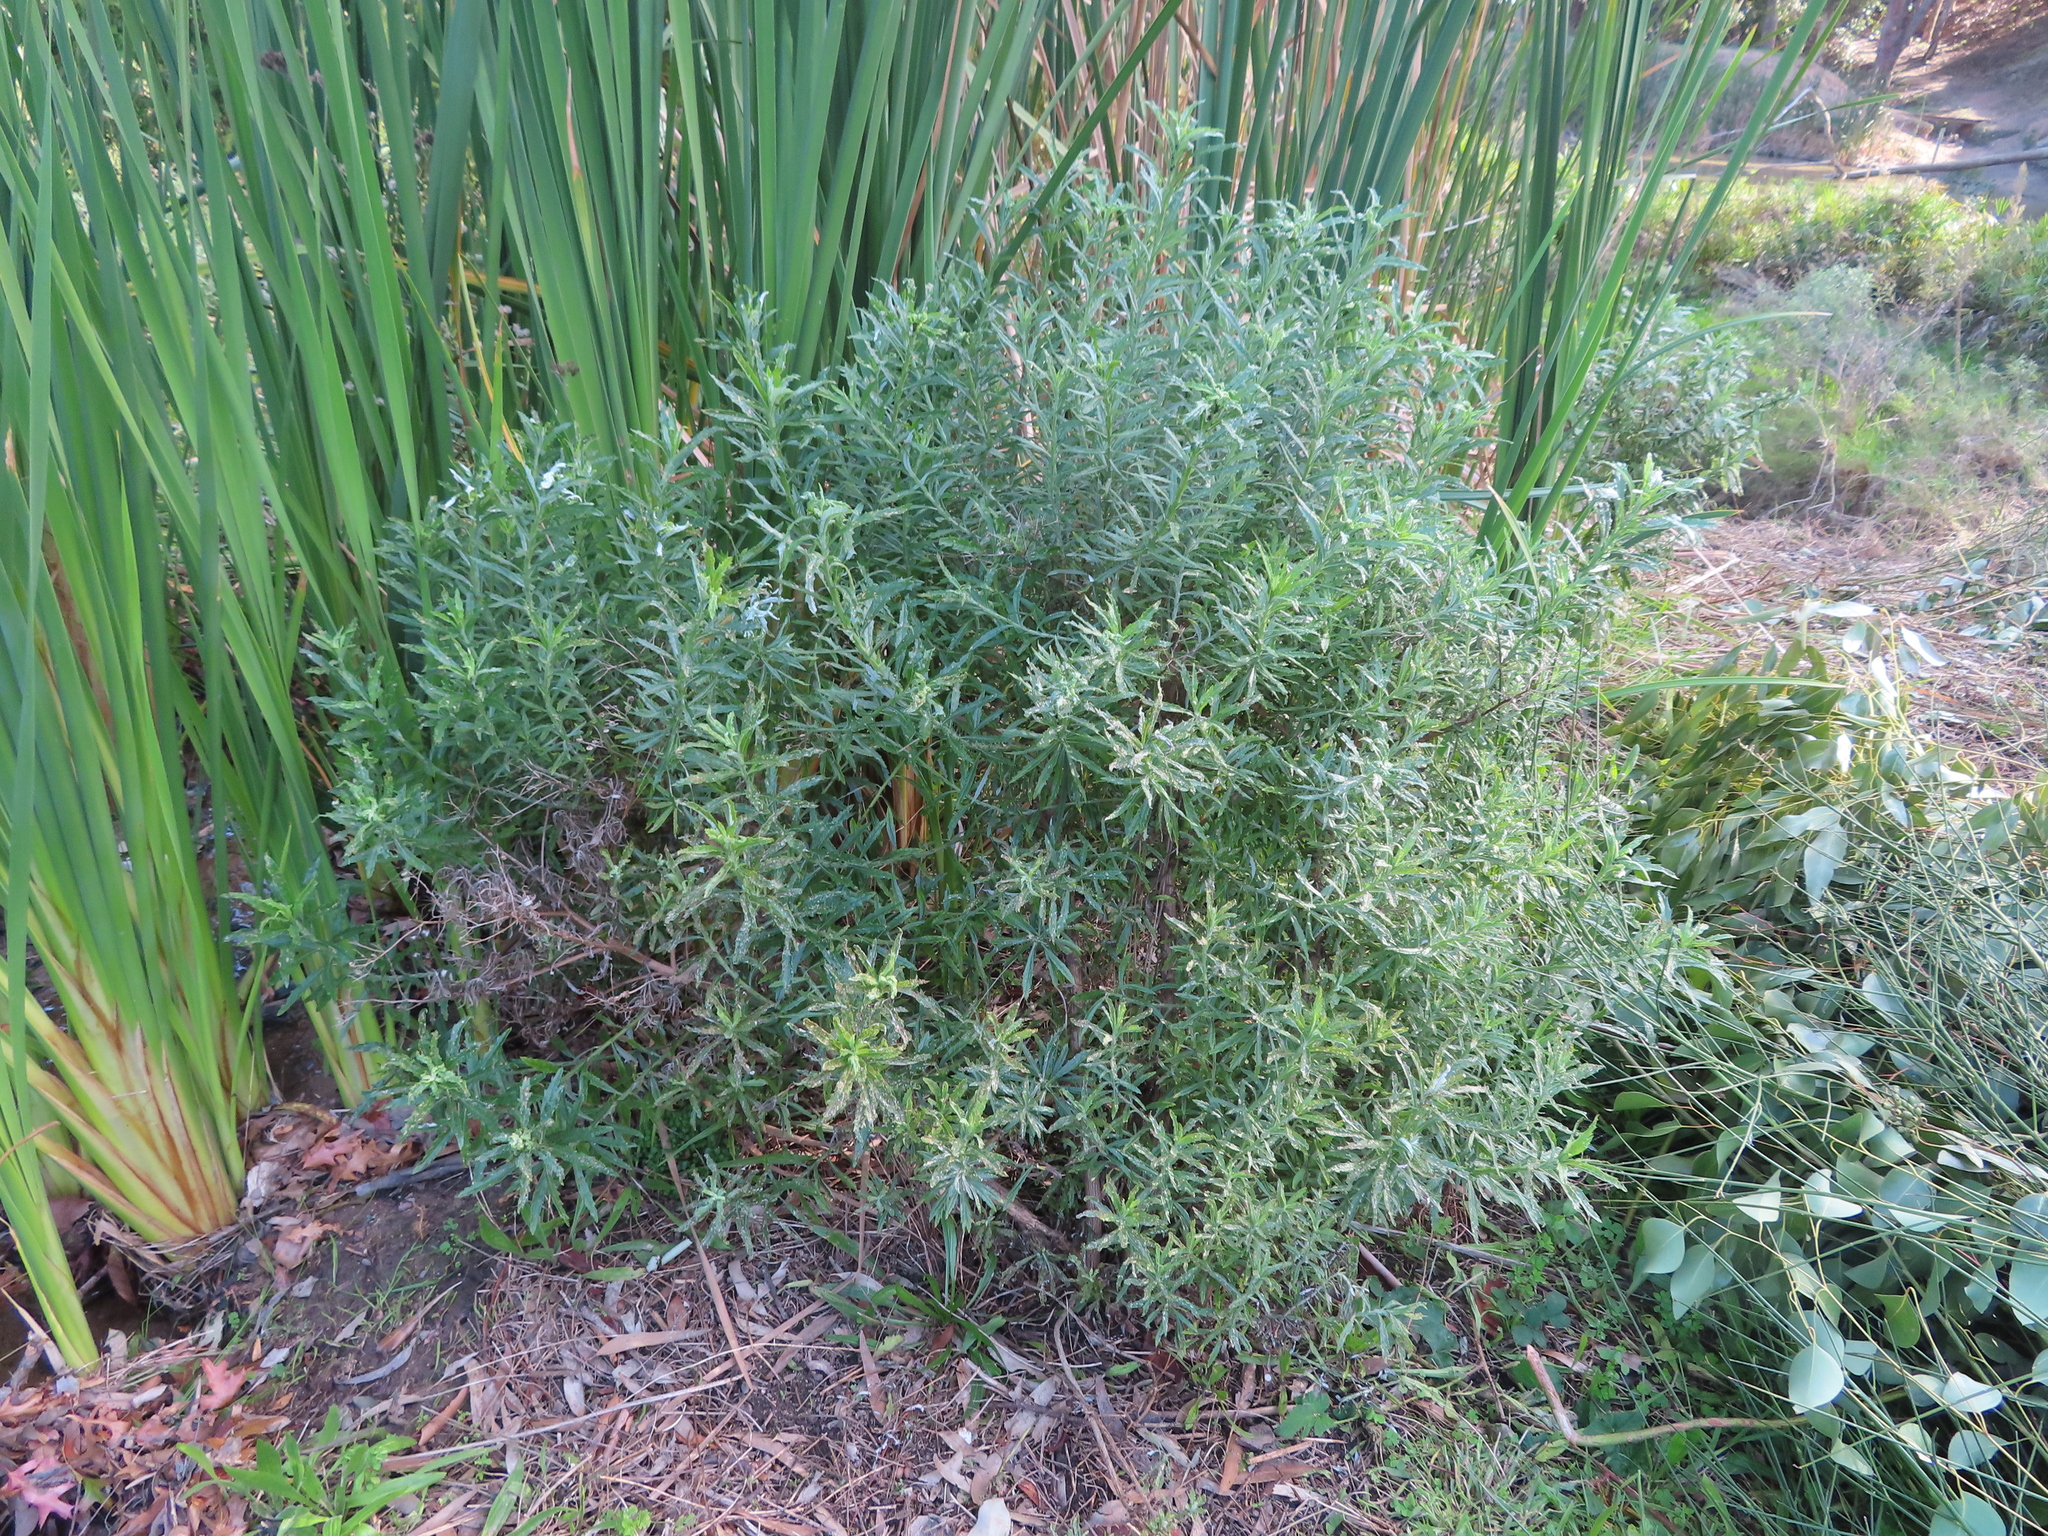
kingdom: Plantae
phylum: Tracheophyta
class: Magnoliopsida
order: Asterales
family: Asteraceae
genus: Senecio
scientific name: Senecio pterophorus
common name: Shoddy ragwort
